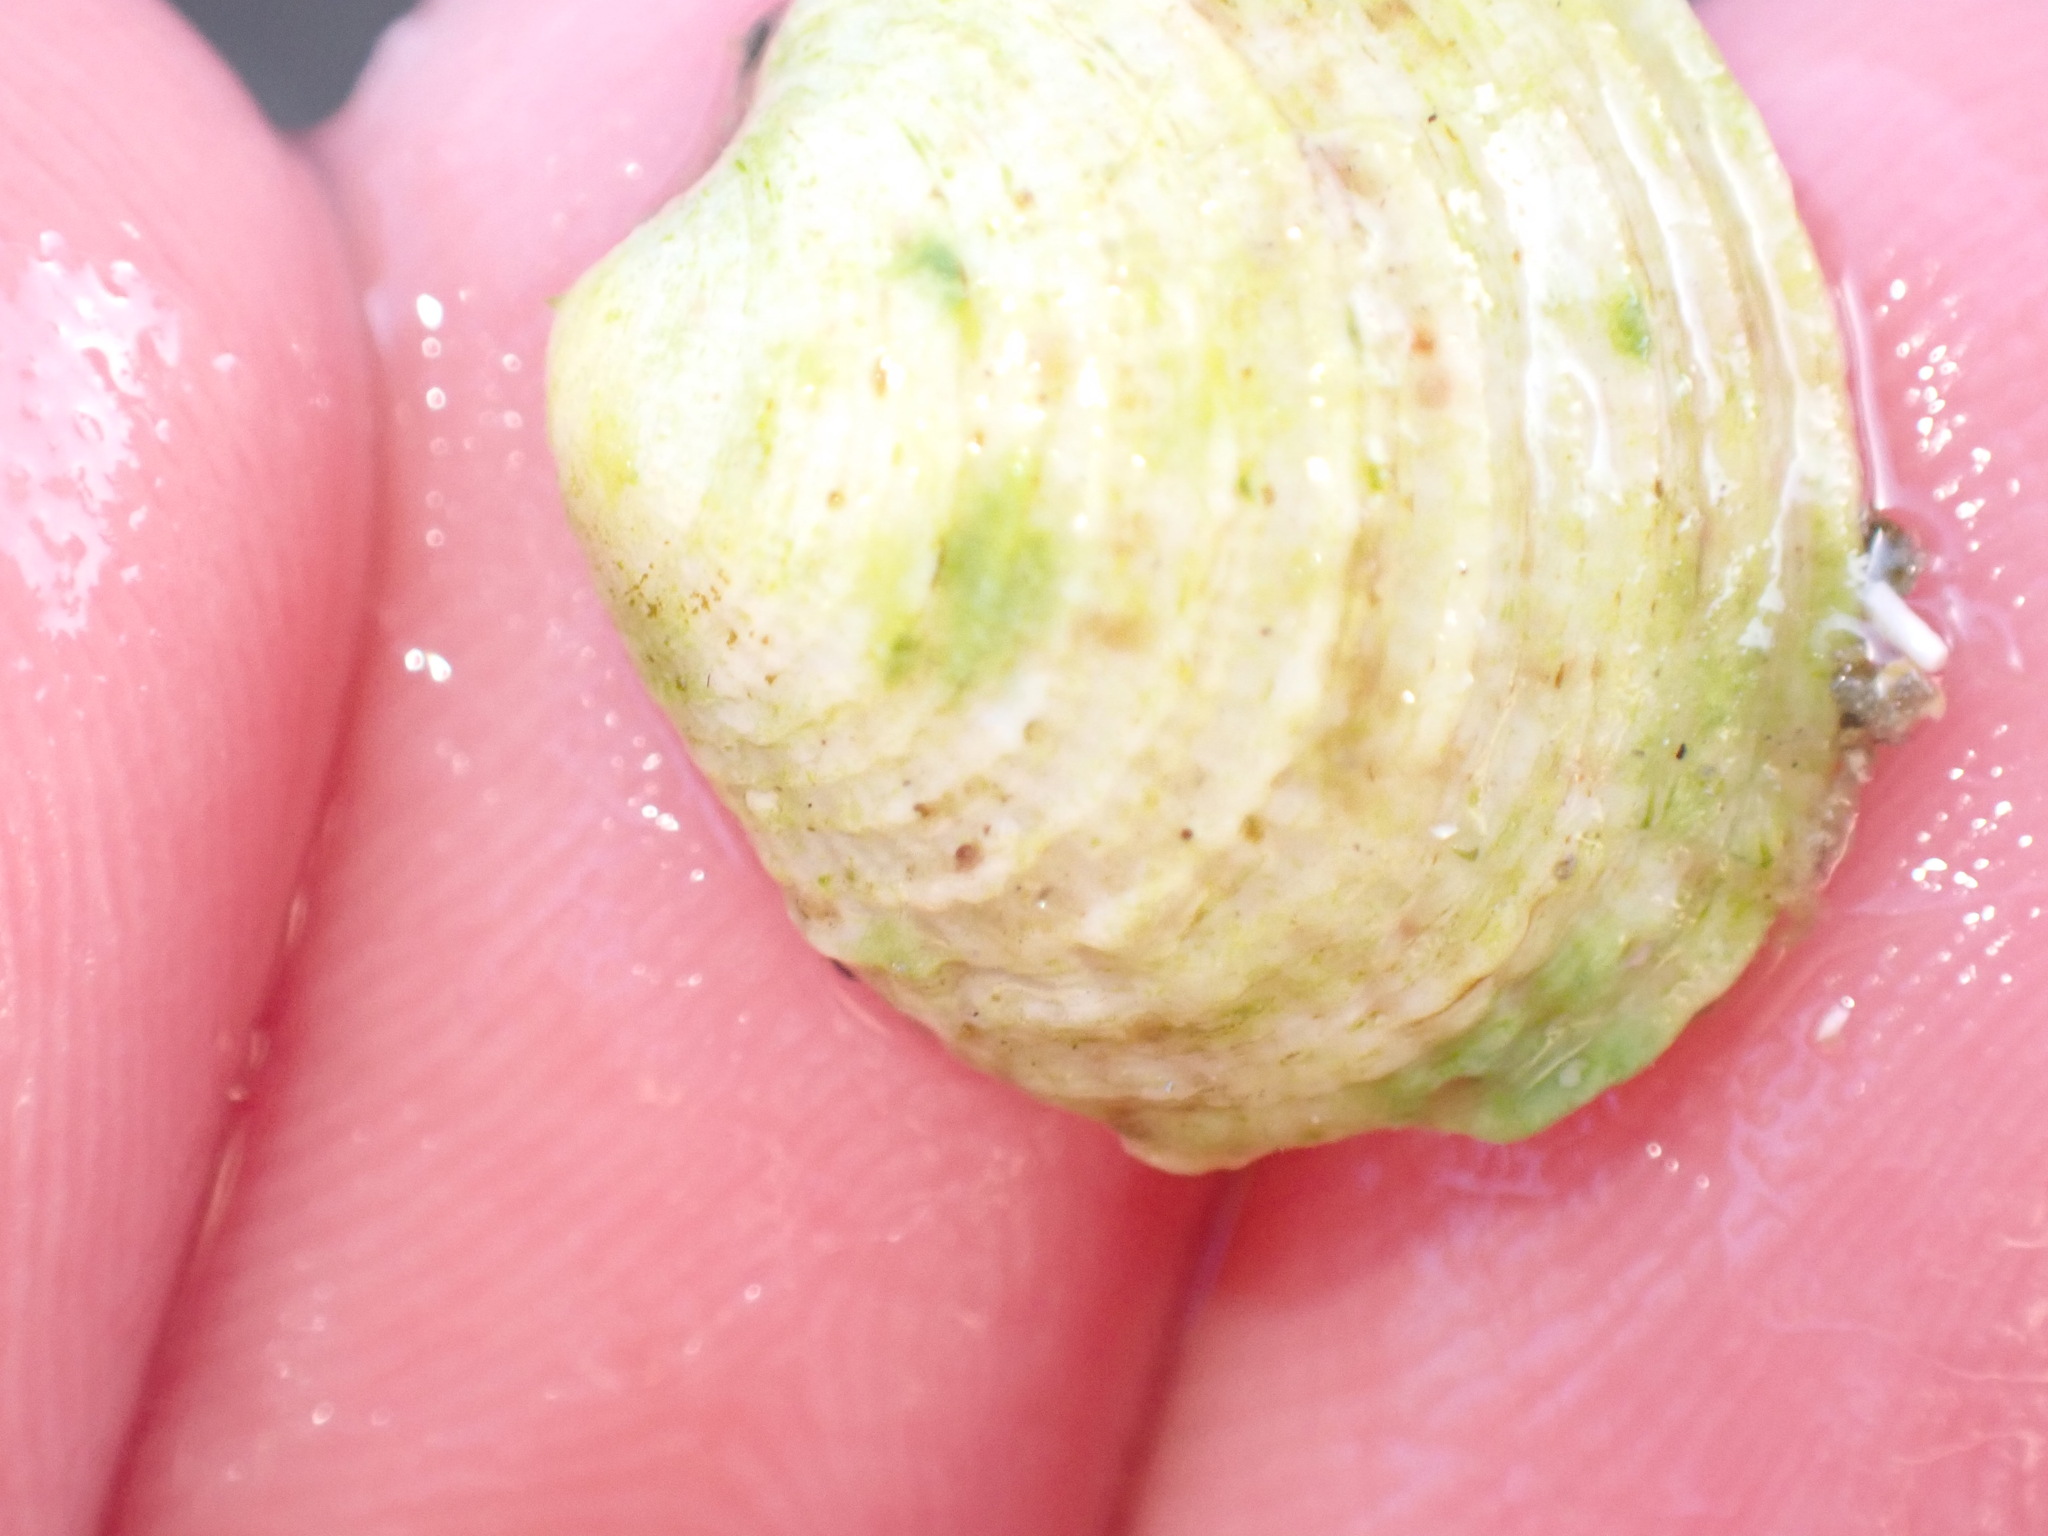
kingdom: Animalia
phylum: Mollusca
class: Bivalvia
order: Venerida
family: Veneridae
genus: Venus
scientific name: Venus verrucosa
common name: Warty venus
